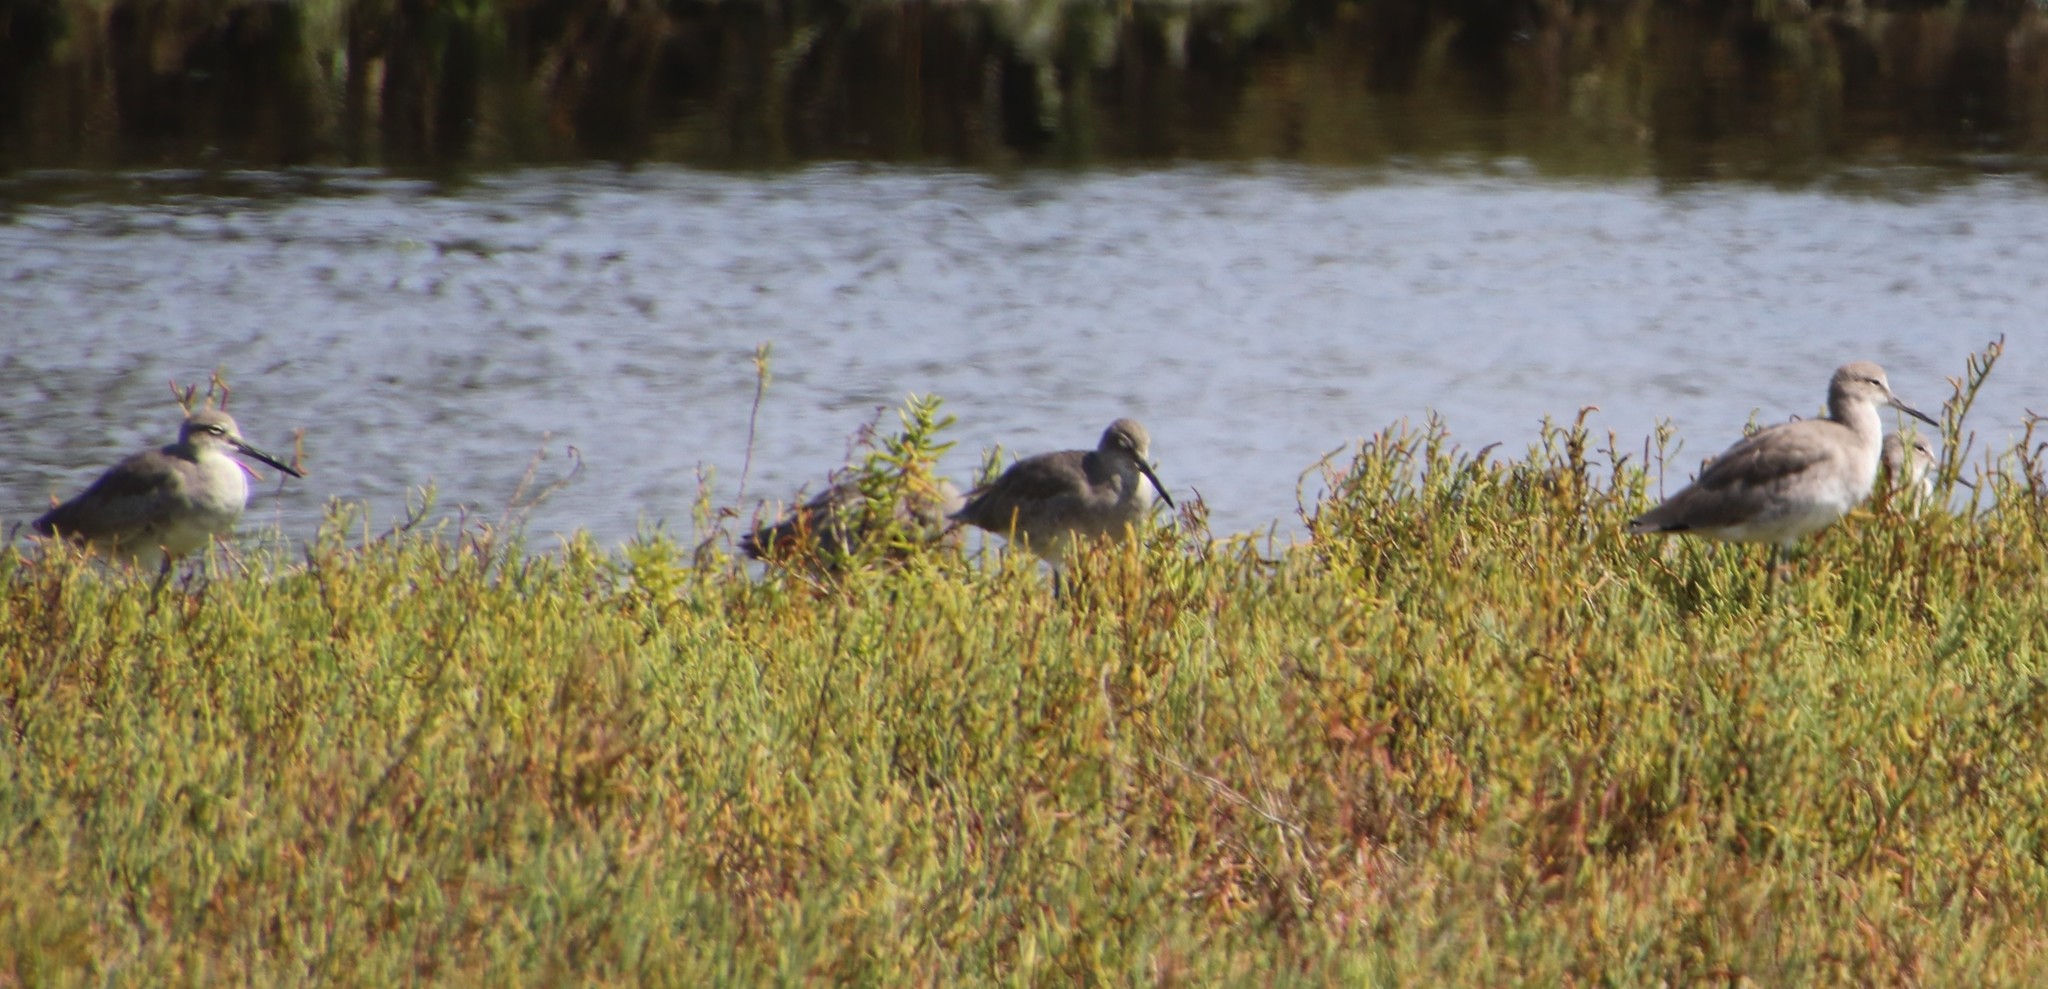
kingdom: Animalia
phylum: Chordata
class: Aves
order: Charadriiformes
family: Scolopacidae
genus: Tringa
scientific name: Tringa semipalmata
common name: Willet
